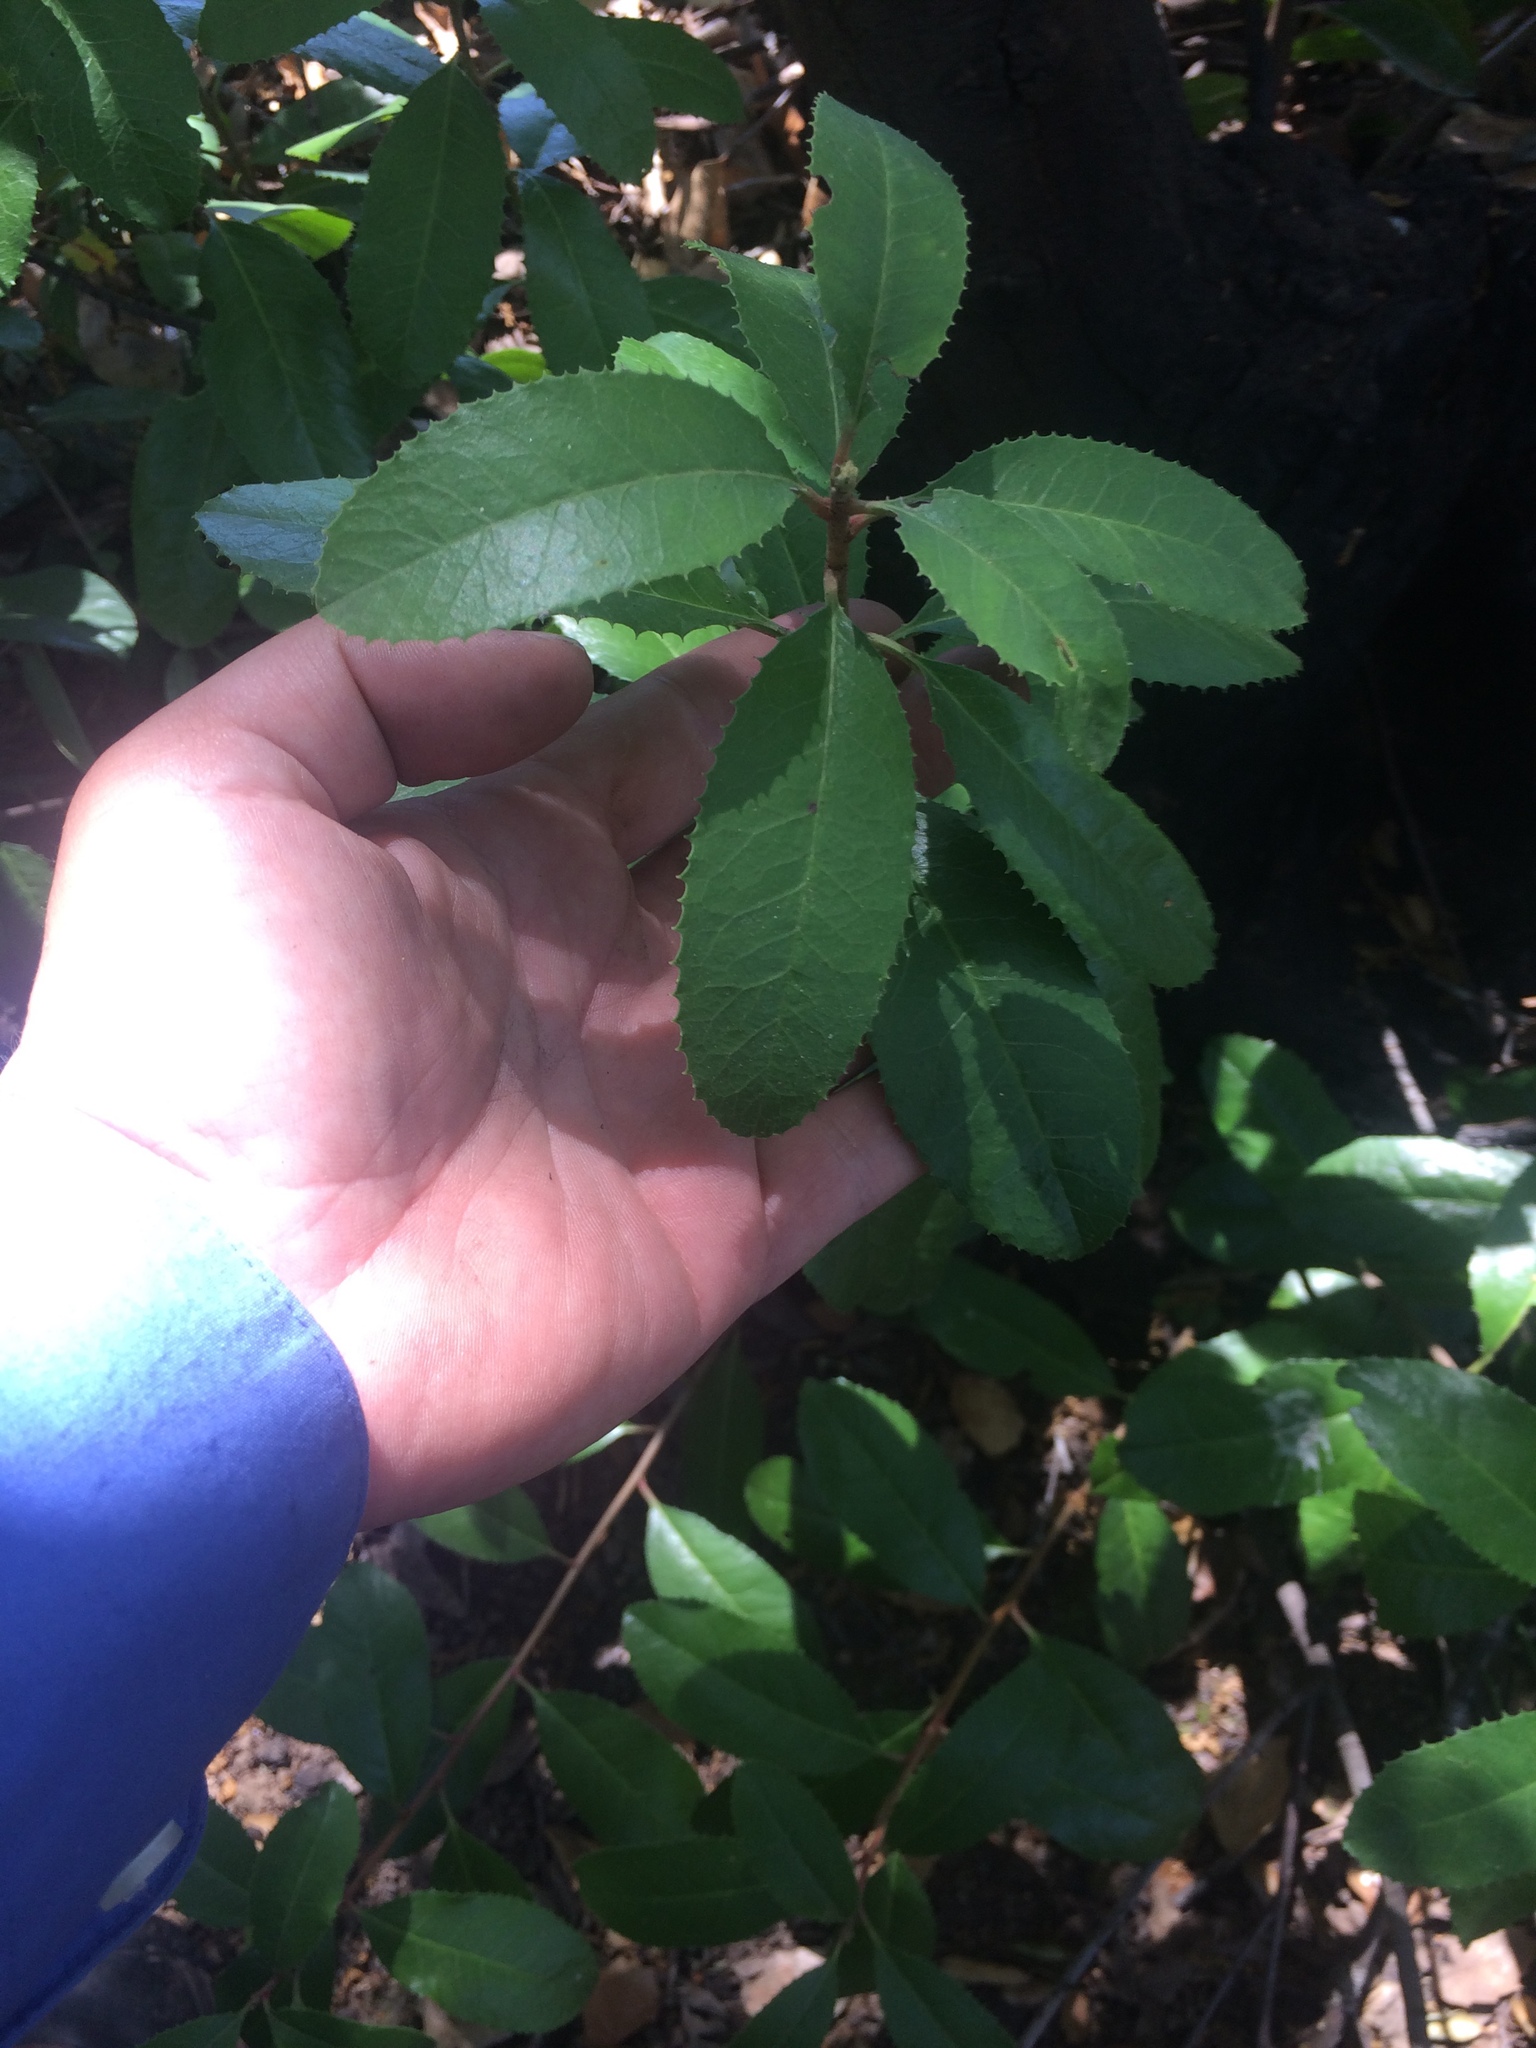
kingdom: Plantae
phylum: Tracheophyta
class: Magnoliopsida
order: Rosales
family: Rosaceae
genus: Heteromeles
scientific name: Heteromeles arbutifolia
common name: California-holly
